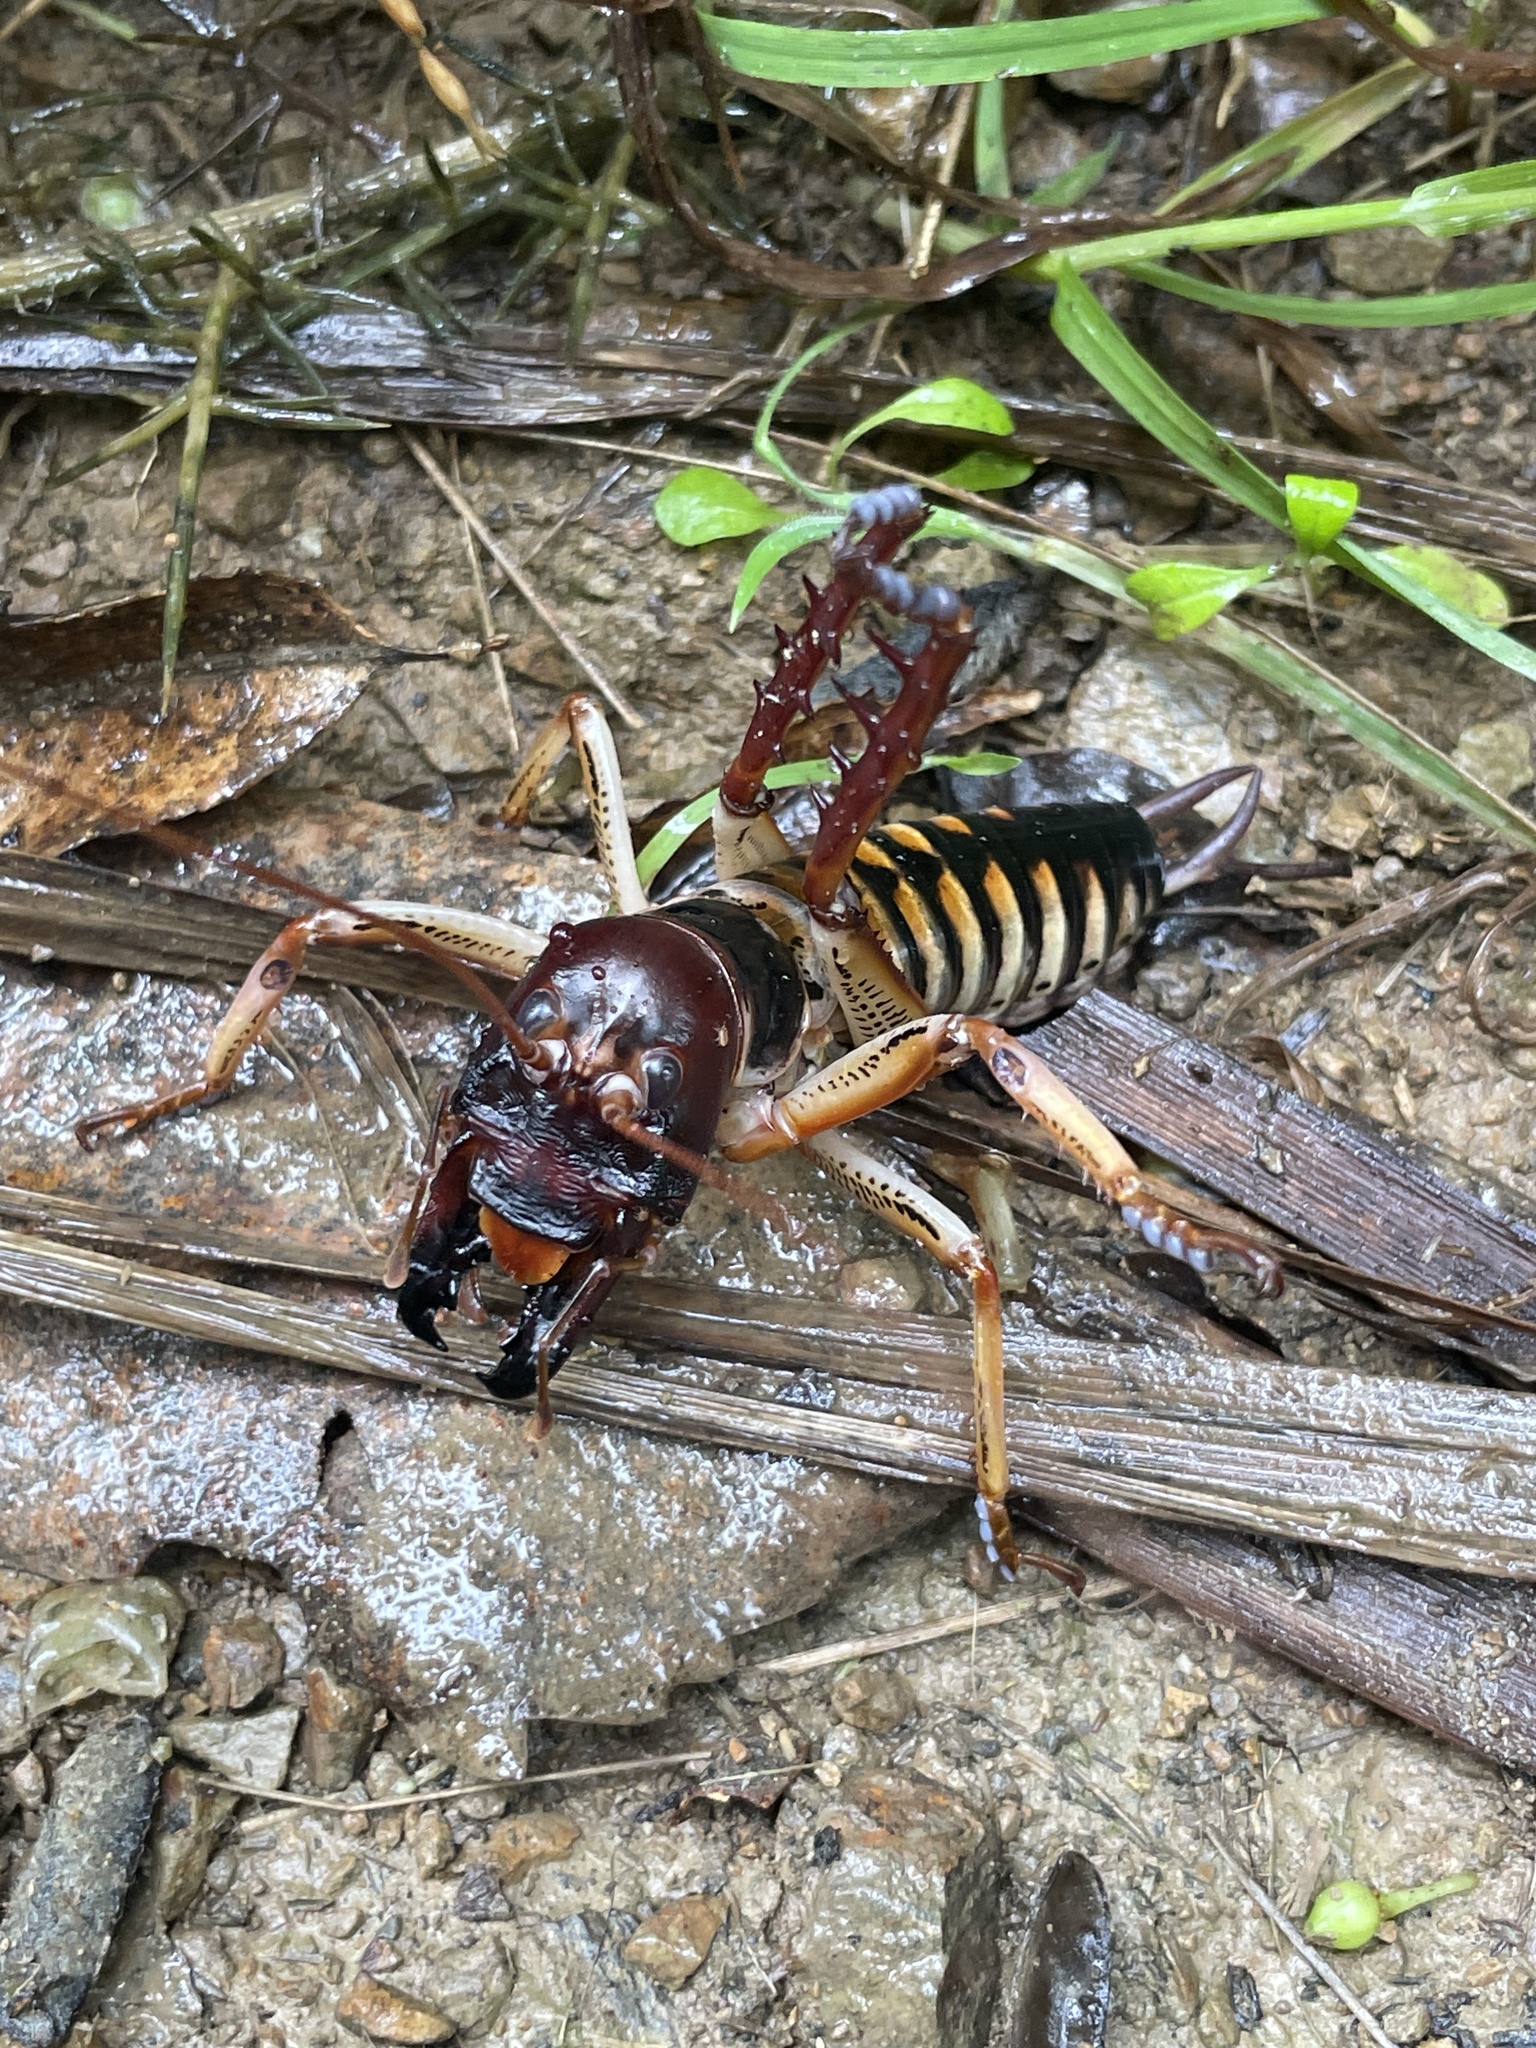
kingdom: Animalia
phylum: Arthropoda
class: Insecta
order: Orthoptera
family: Anostostomatidae
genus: Hemideina
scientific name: Hemideina crassidens
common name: Wellington tree weta
